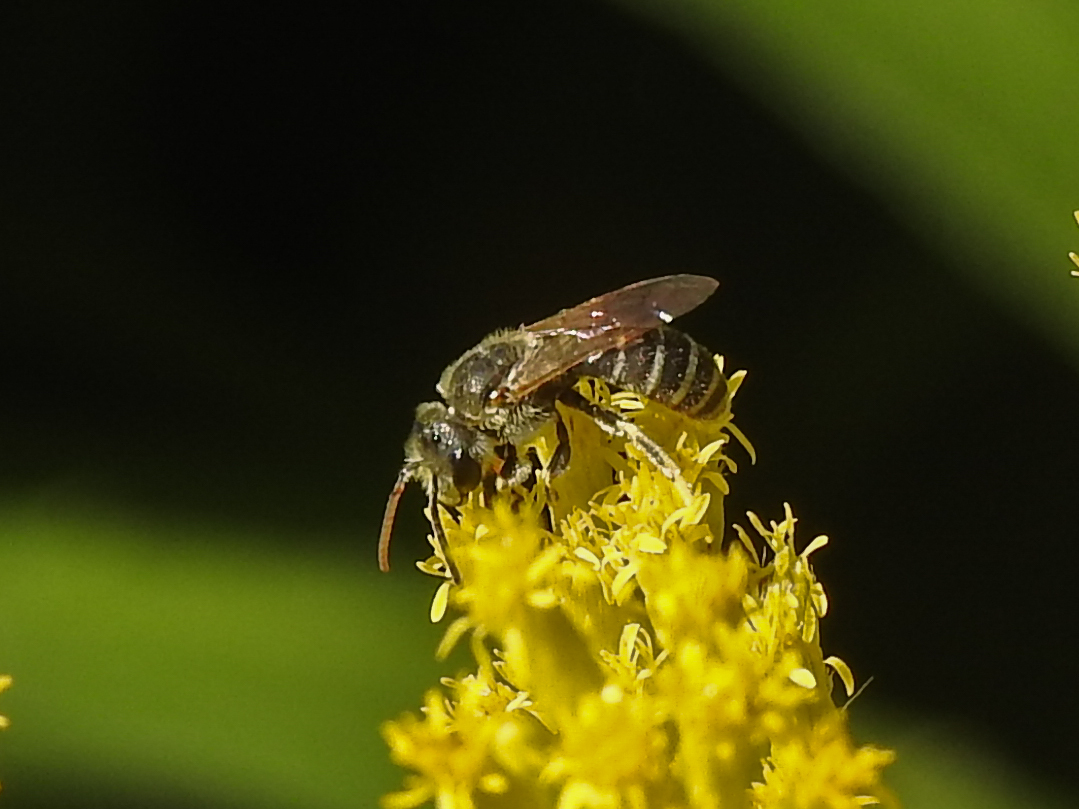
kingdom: Animalia
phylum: Arthropoda
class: Insecta
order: Hymenoptera
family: Halictidae
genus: Halictus
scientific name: Halictus ligatus
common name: Ligated furrow bee
